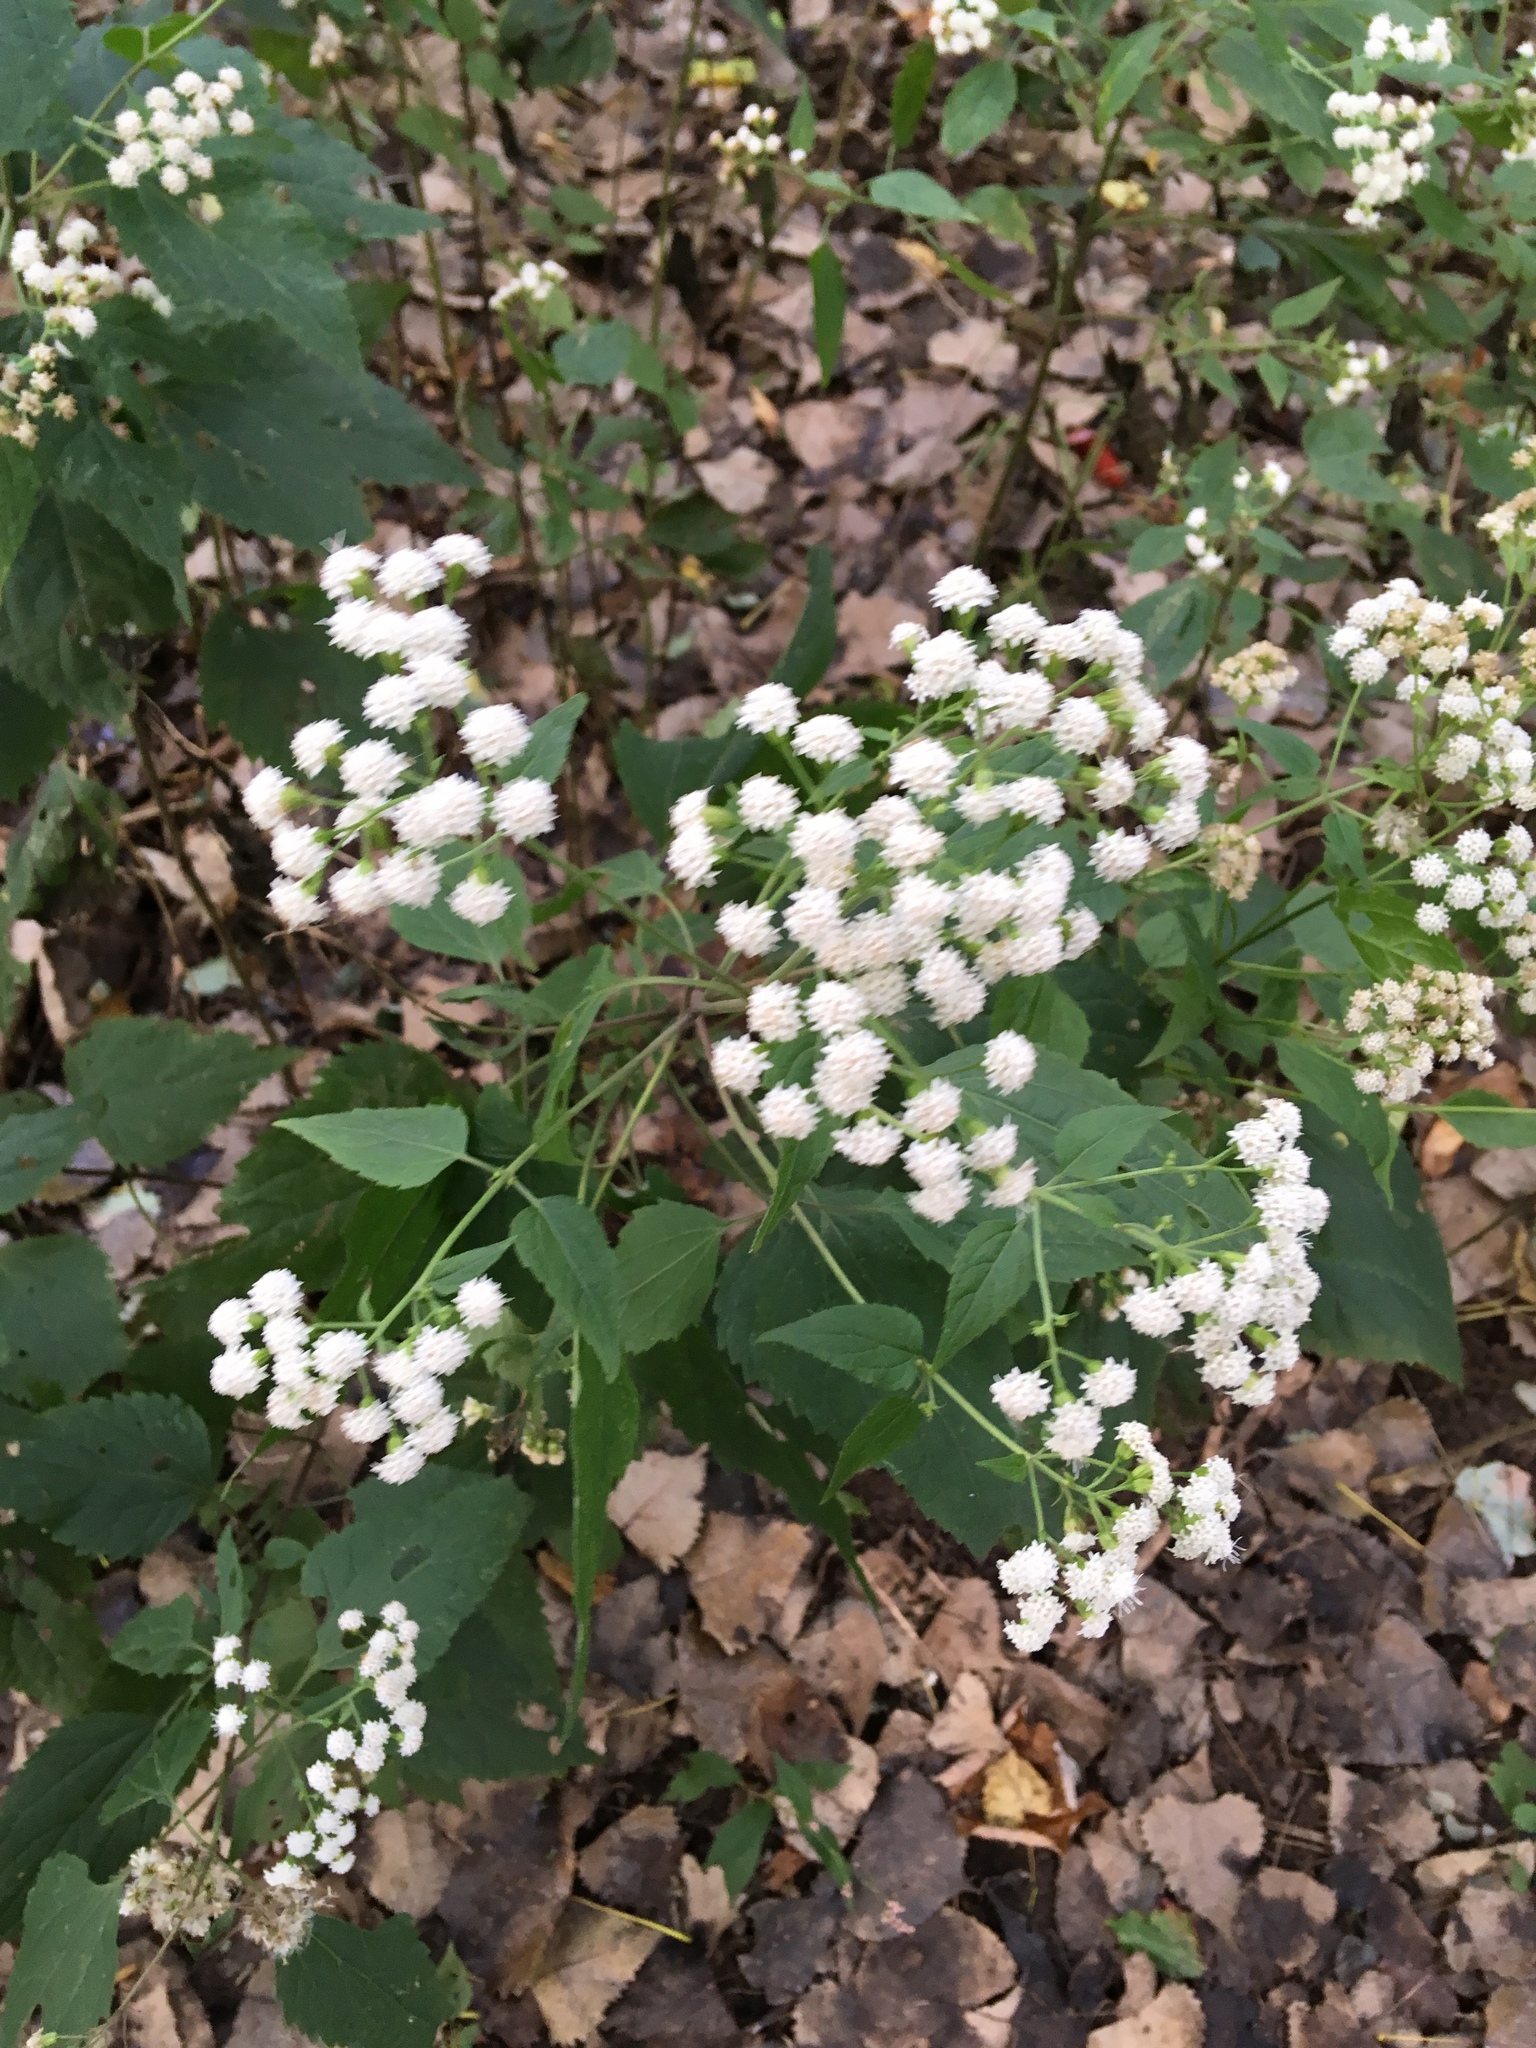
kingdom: Plantae
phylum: Tracheophyta
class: Magnoliopsida
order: Asterales
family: Asteraceae
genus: Ageratina
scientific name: Ageratina altissima
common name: White snakeroot
